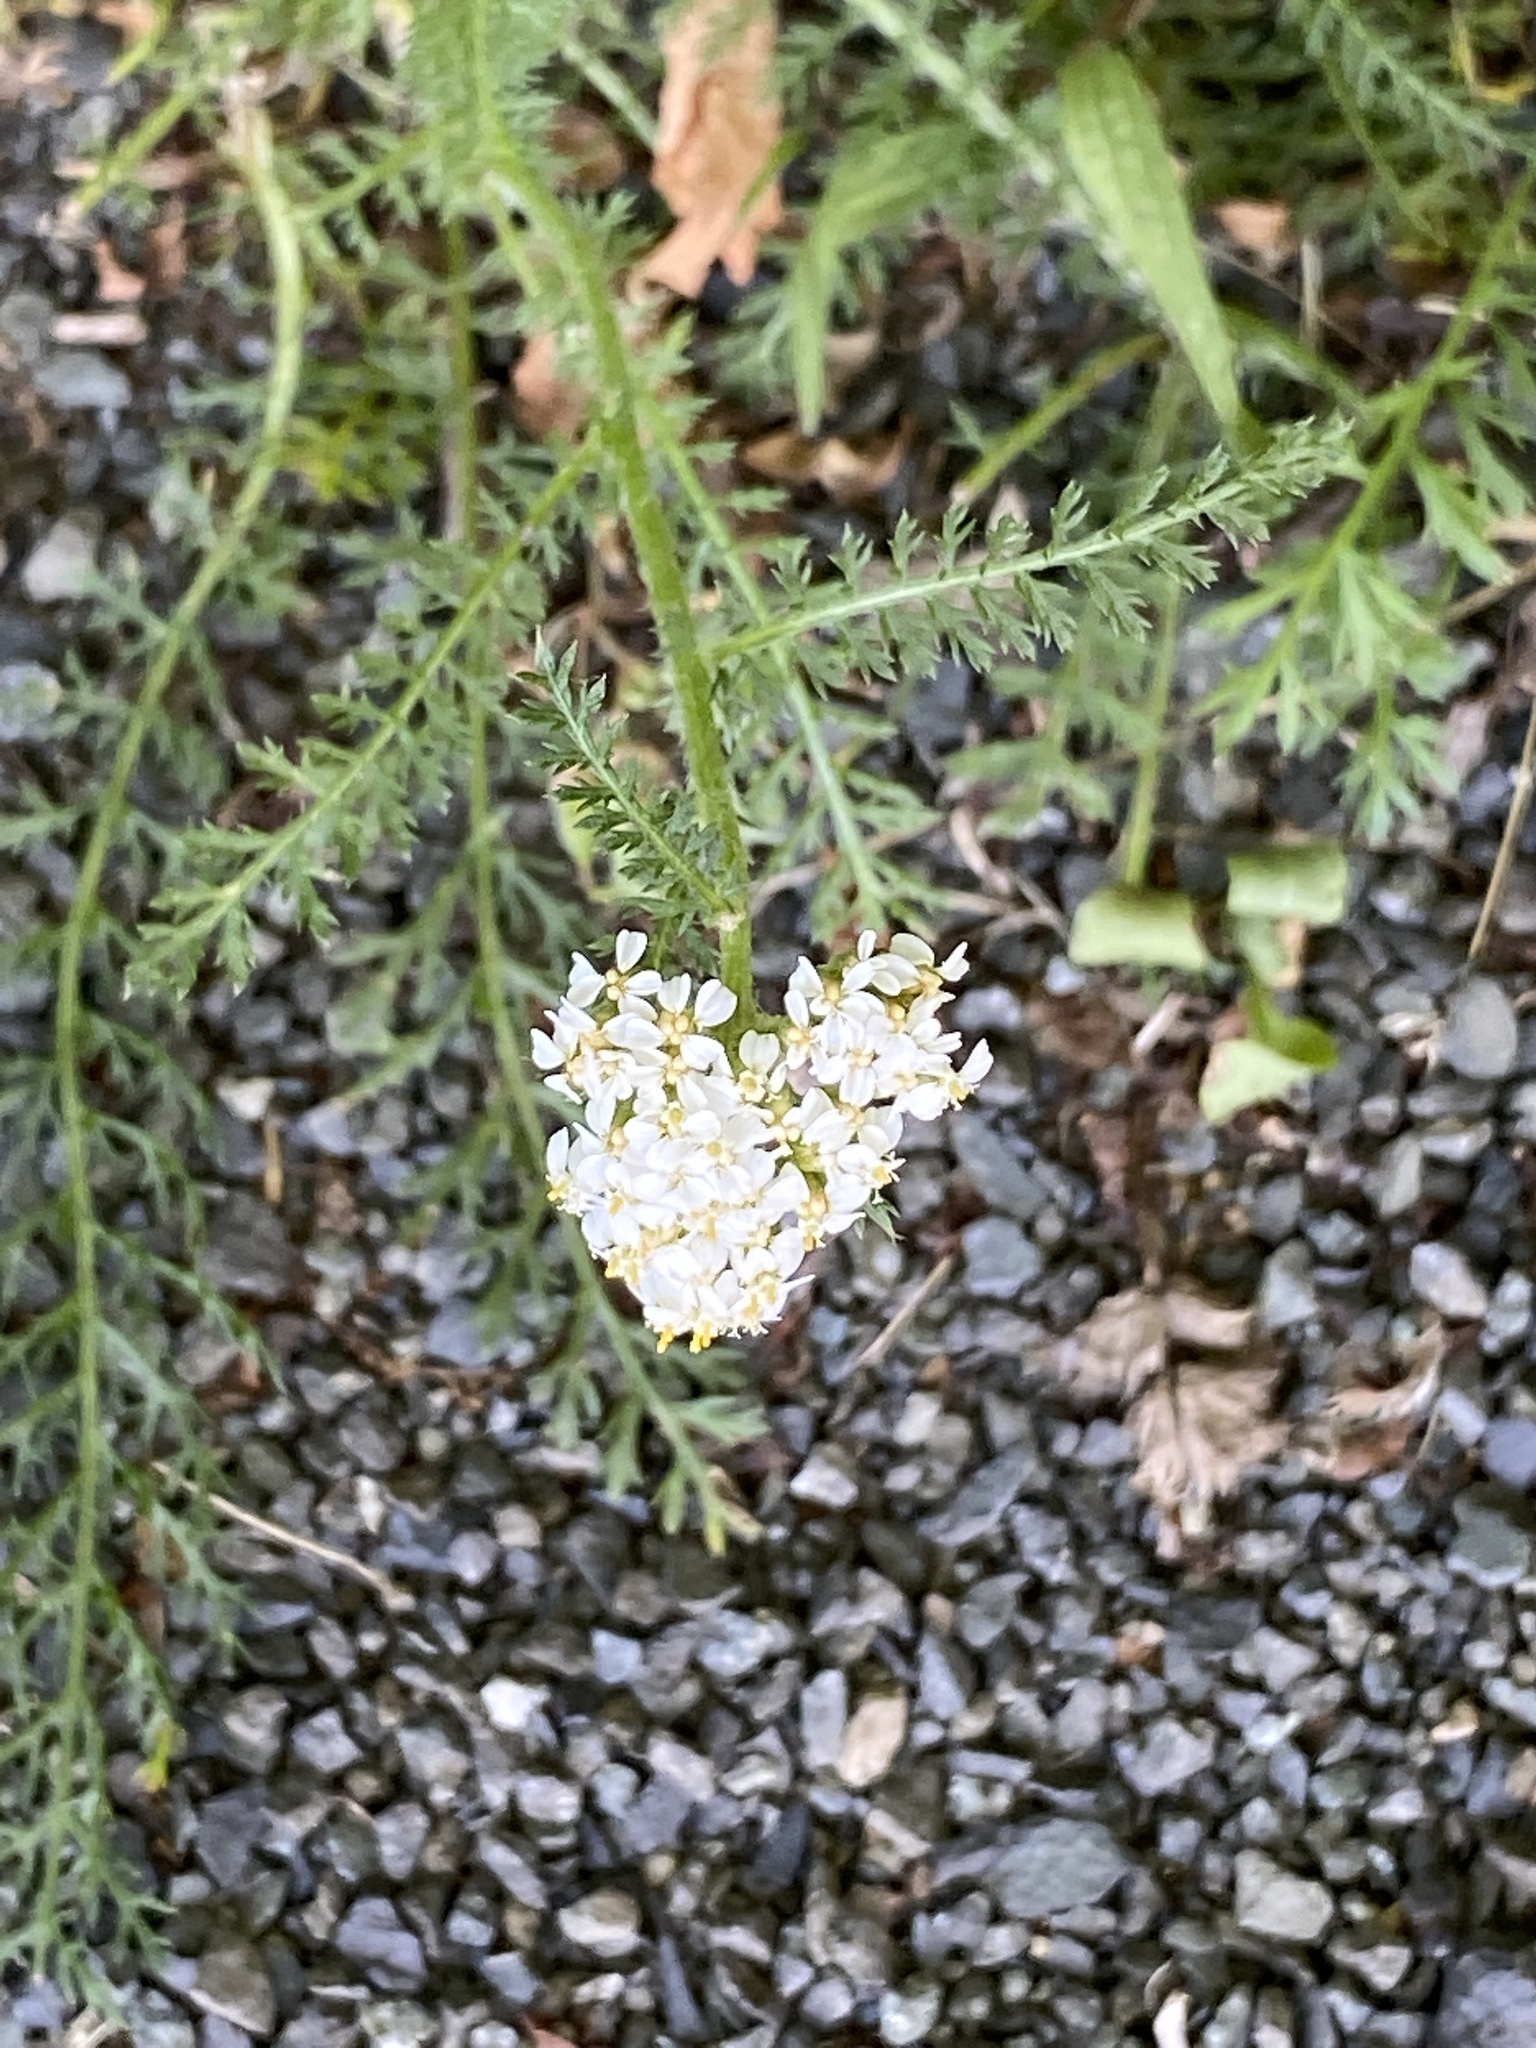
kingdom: Plantae
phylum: Tracheophyta
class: Magnoliopsida
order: Asterales
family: Asteraceae
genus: Achillea
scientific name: Achillea millefolium
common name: Yarrow
